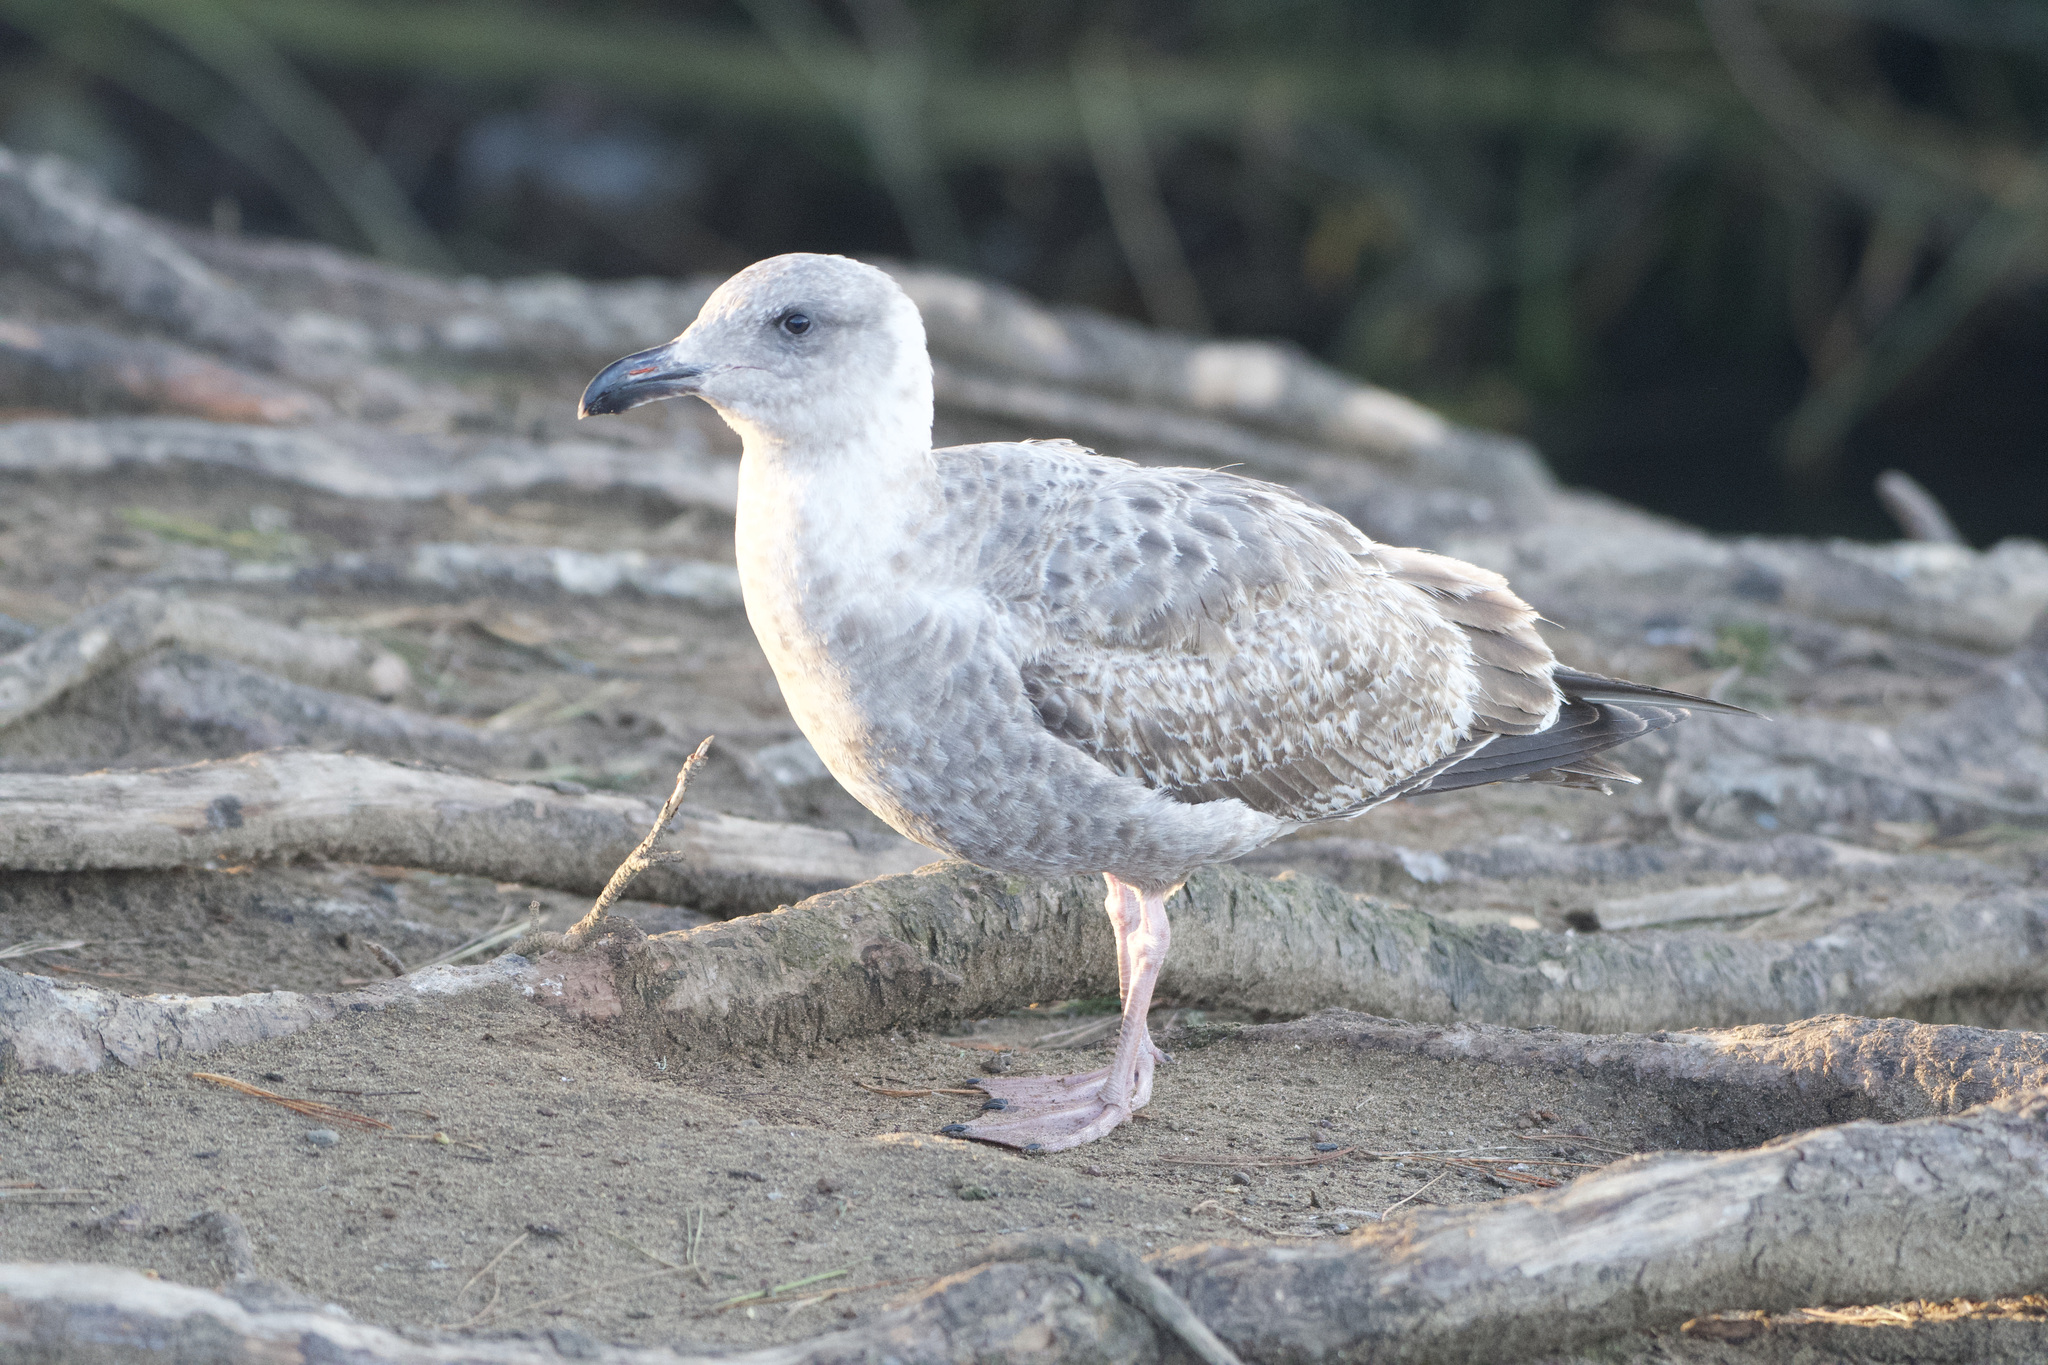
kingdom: Animalia
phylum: Chordata
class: Aves
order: Charadriiformes
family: Laridae
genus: Larus
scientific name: Larus occidentalis
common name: Western gull
